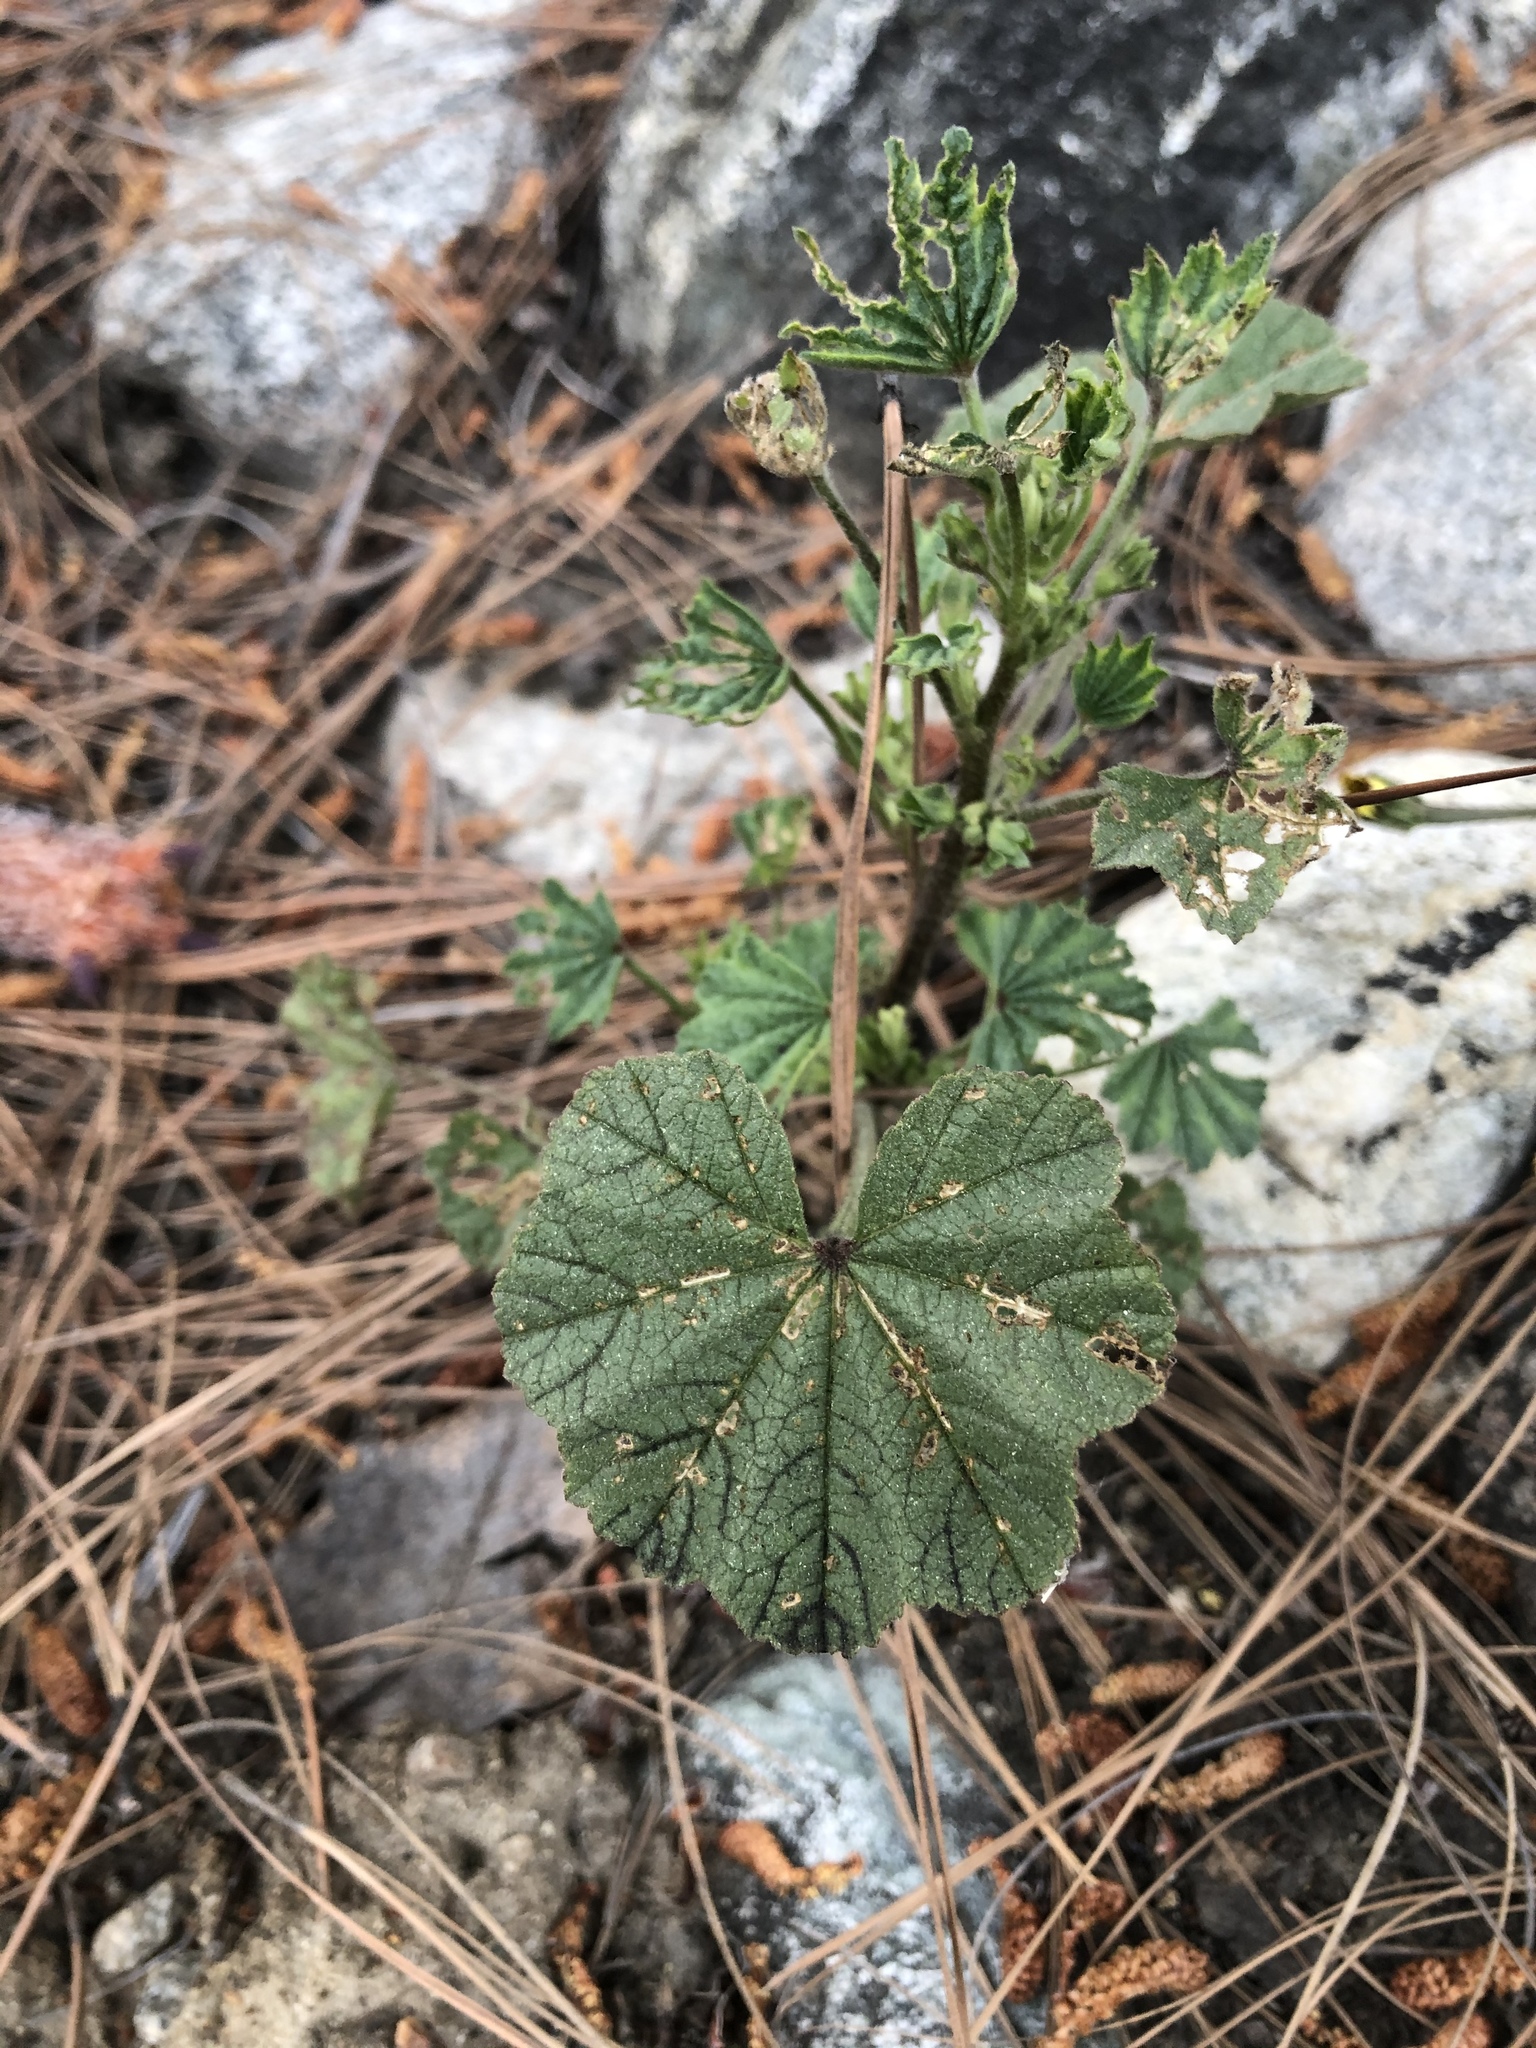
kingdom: Plantae
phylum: Tracheophyta
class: Magnoliopsida
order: Malvales
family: Malvaceae
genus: Malva
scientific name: Malva
